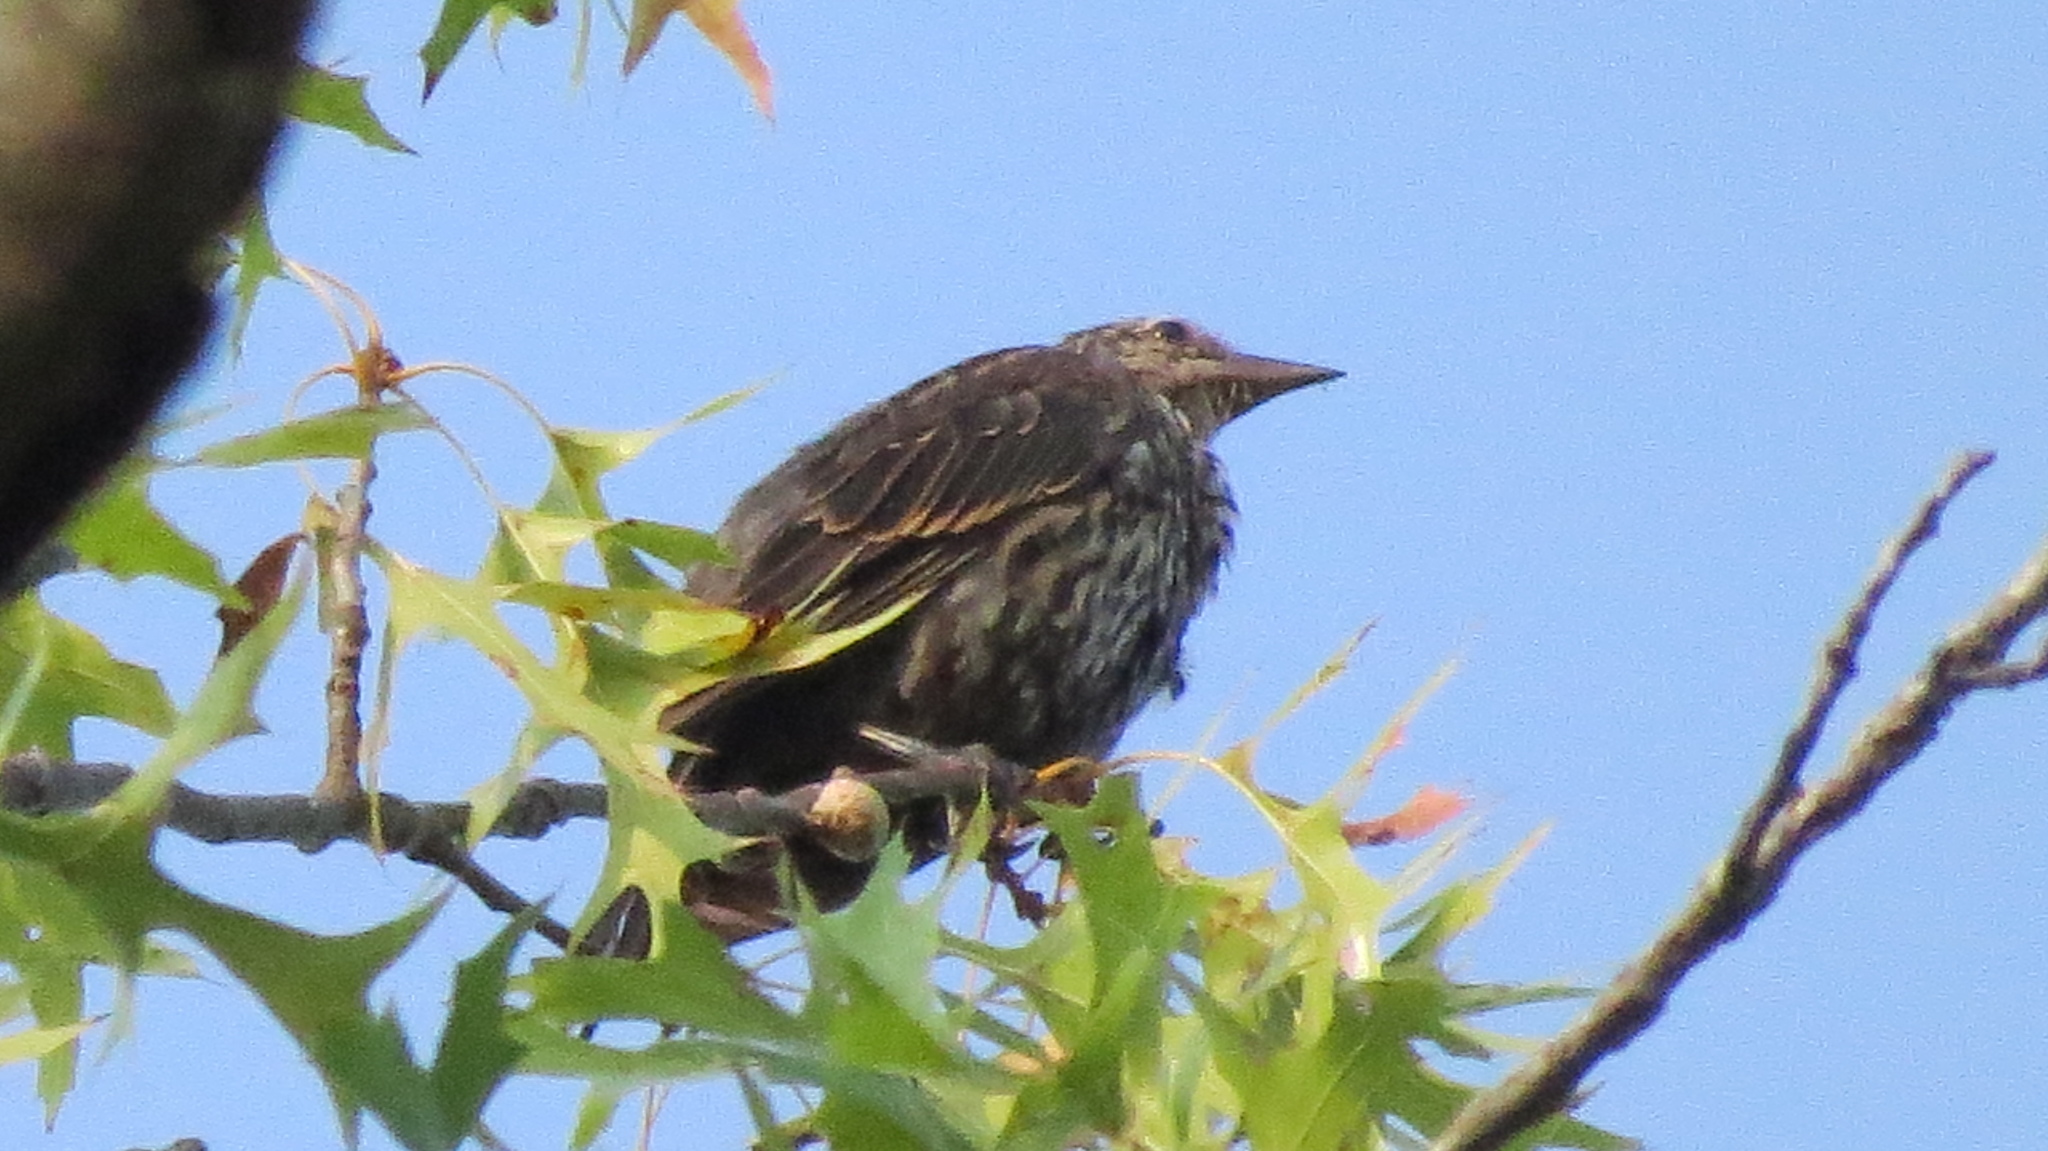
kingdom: Animalia
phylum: Chordata
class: Aves
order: Passeriformes
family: Icteridae
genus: Agelaius
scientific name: Agelaius phoeniceus
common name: Red-winged blackbird
